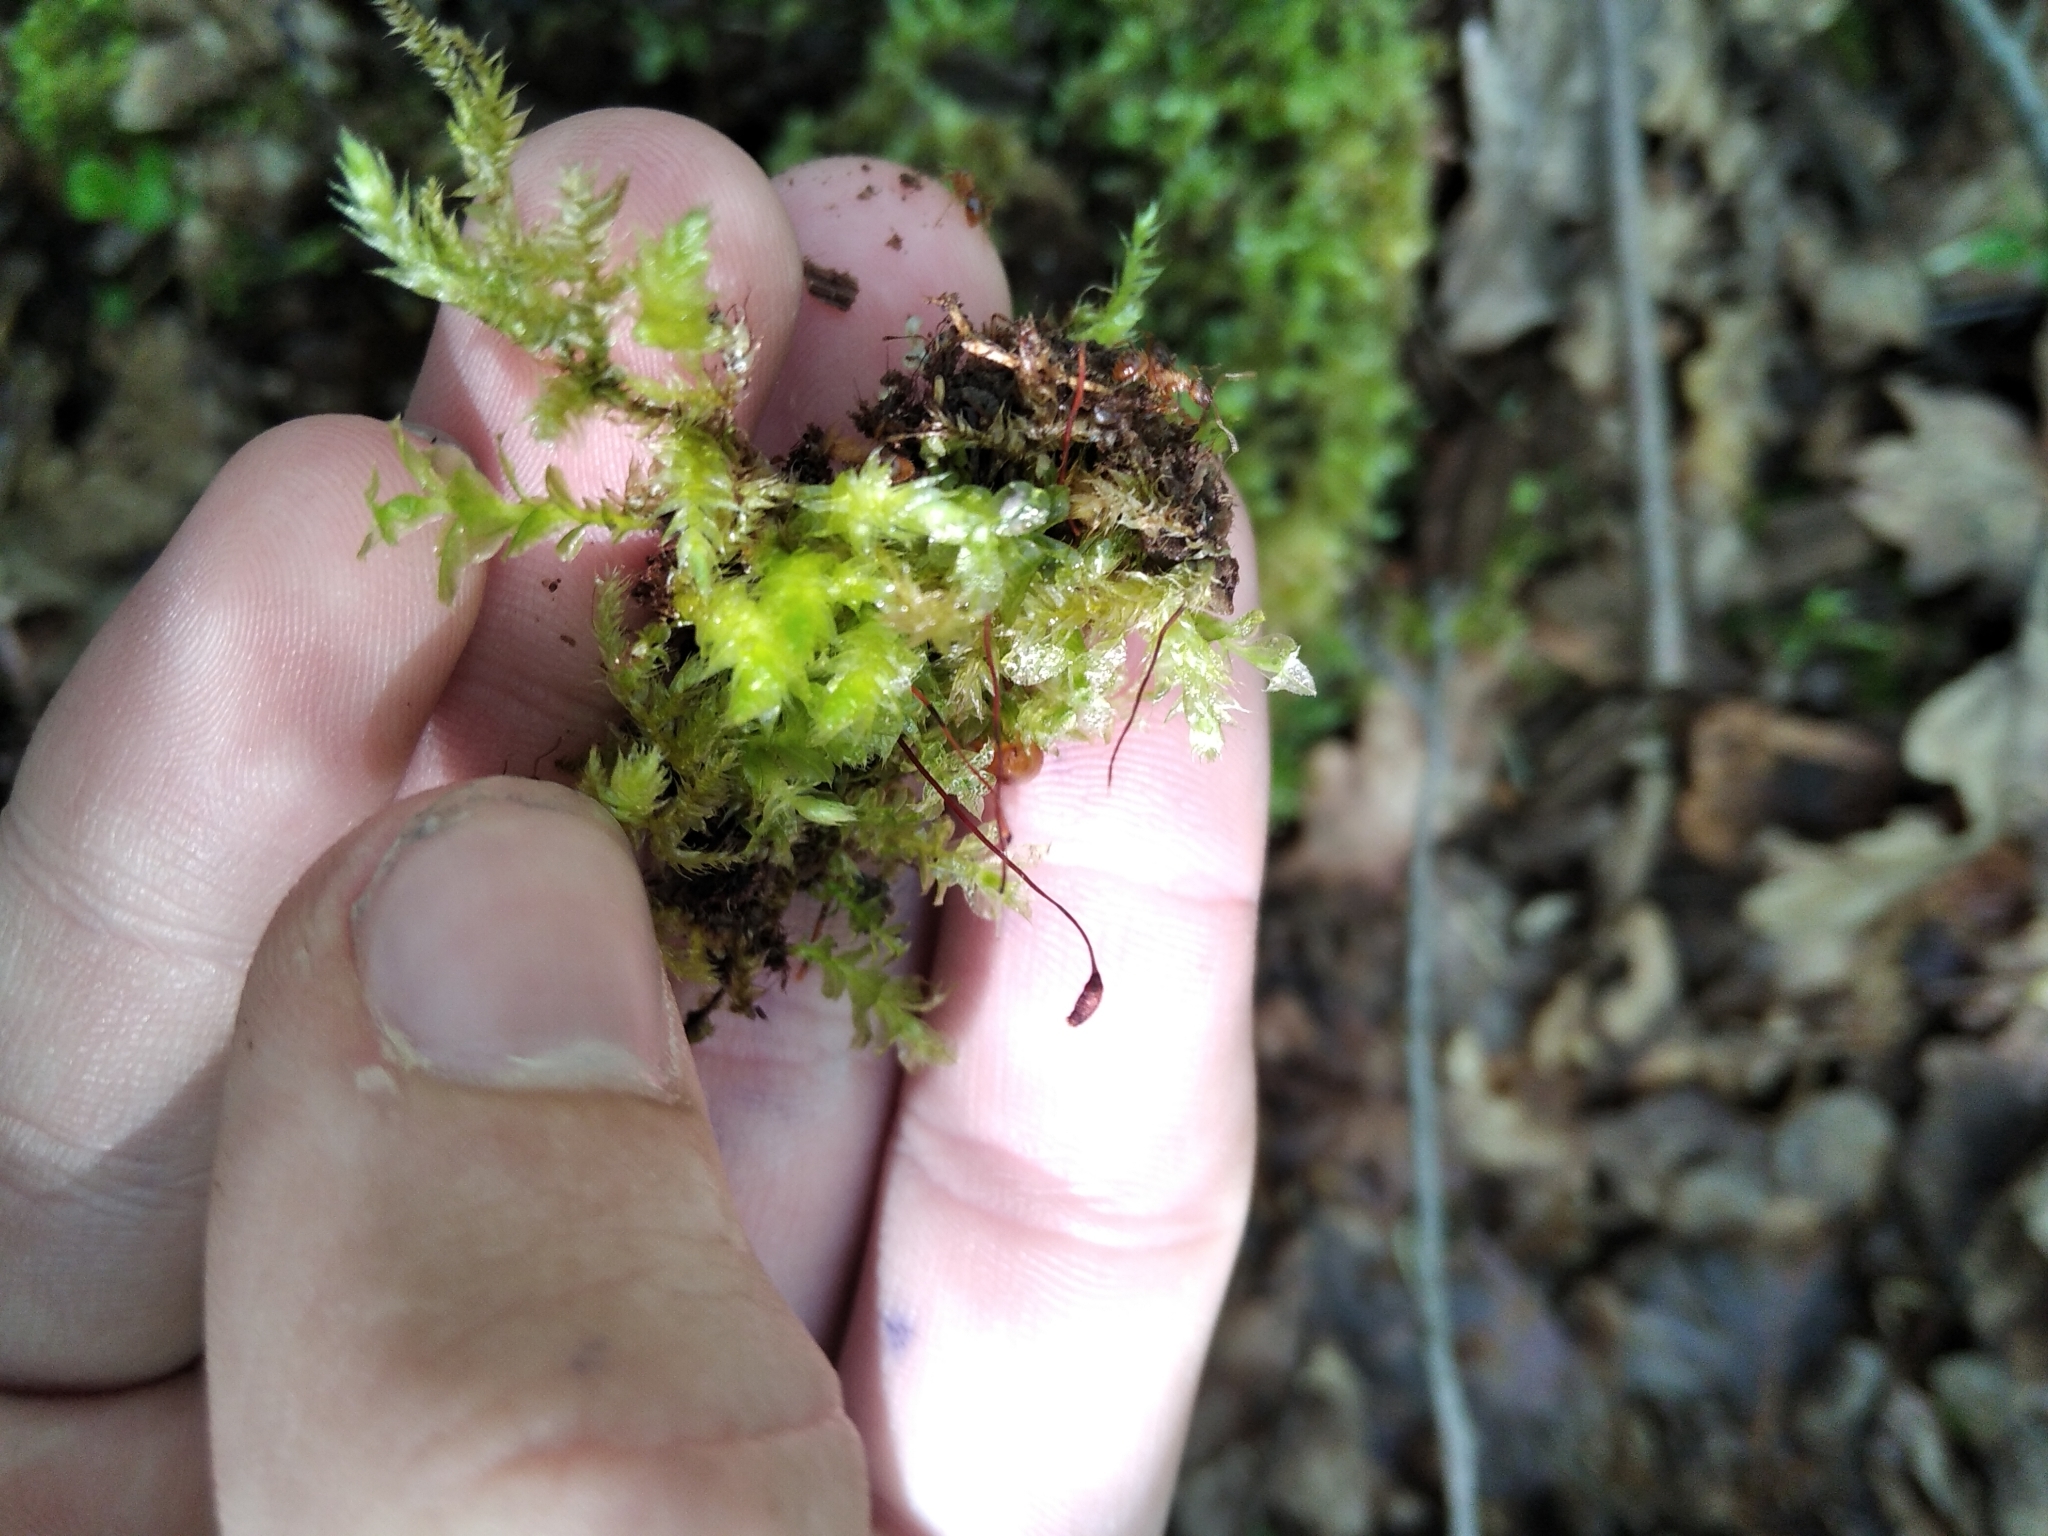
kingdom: Plantae
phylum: Bryophyta
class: Bryopsida
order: Hypnales
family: Brachytheciaceae
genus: Brachythecium
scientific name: Brachythecium rutabulum
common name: Rough-stalked feather-moss
